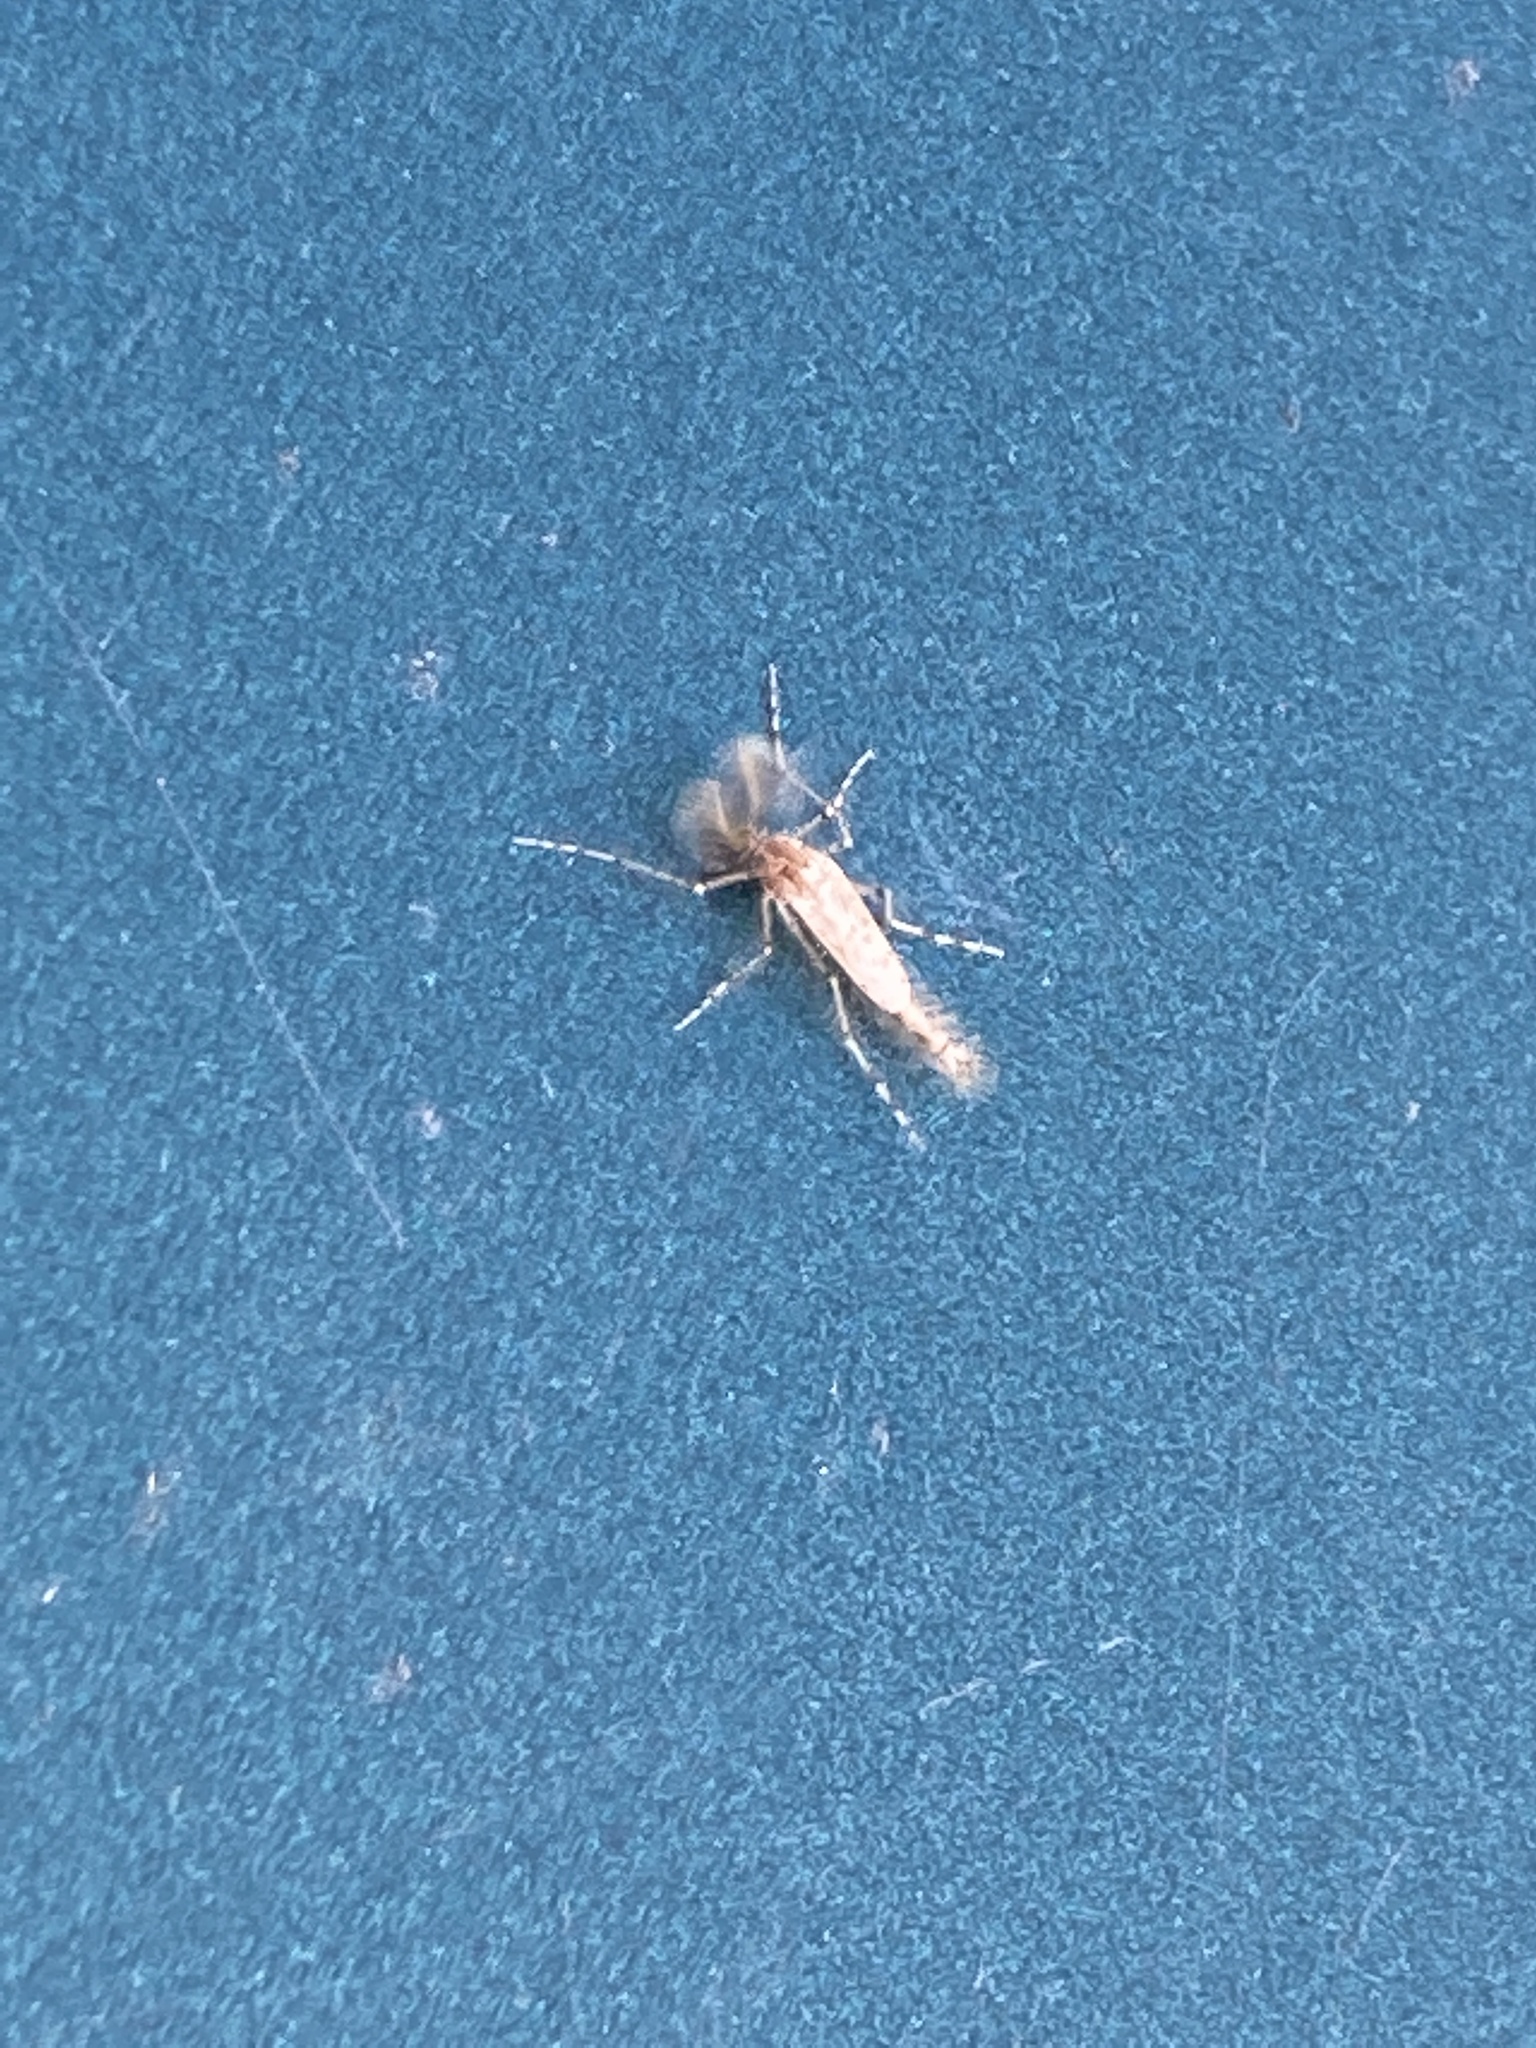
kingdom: Animalia
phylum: Arthropoda
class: Insecta
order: Diptera
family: Chaoboridae
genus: Chaoborus
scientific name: Chaoborus punctipennis
